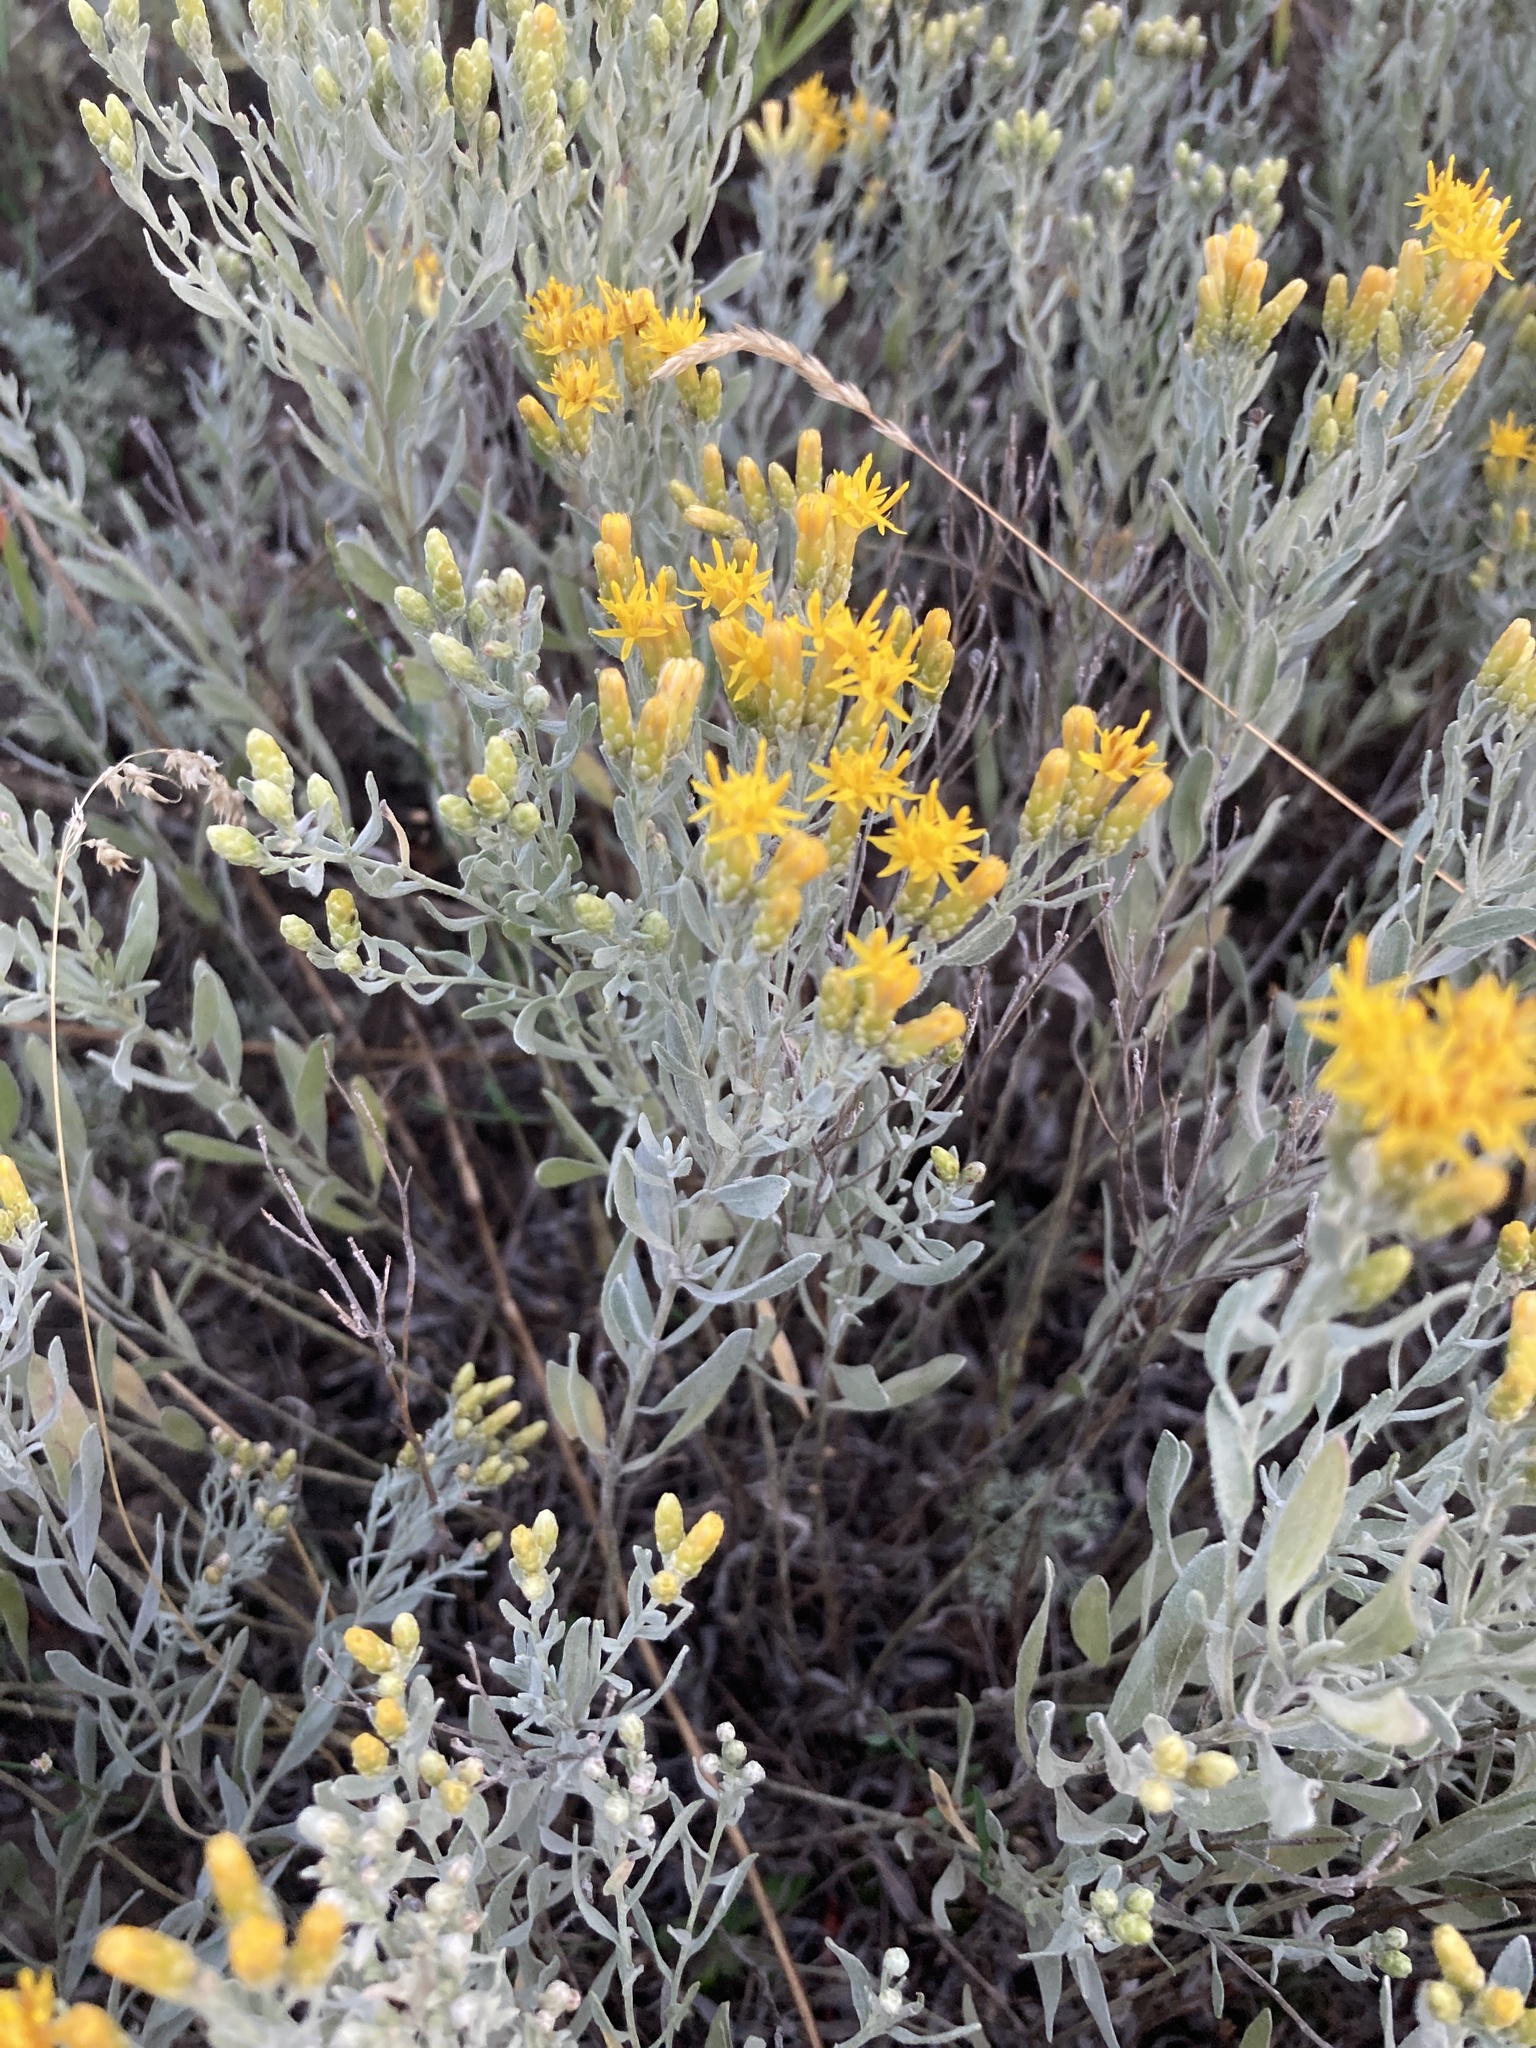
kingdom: Plantae
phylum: Tracheophyta
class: Magnoliopsida
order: Asterales
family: Asteraceae
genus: Galatella
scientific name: Galatella villosa
